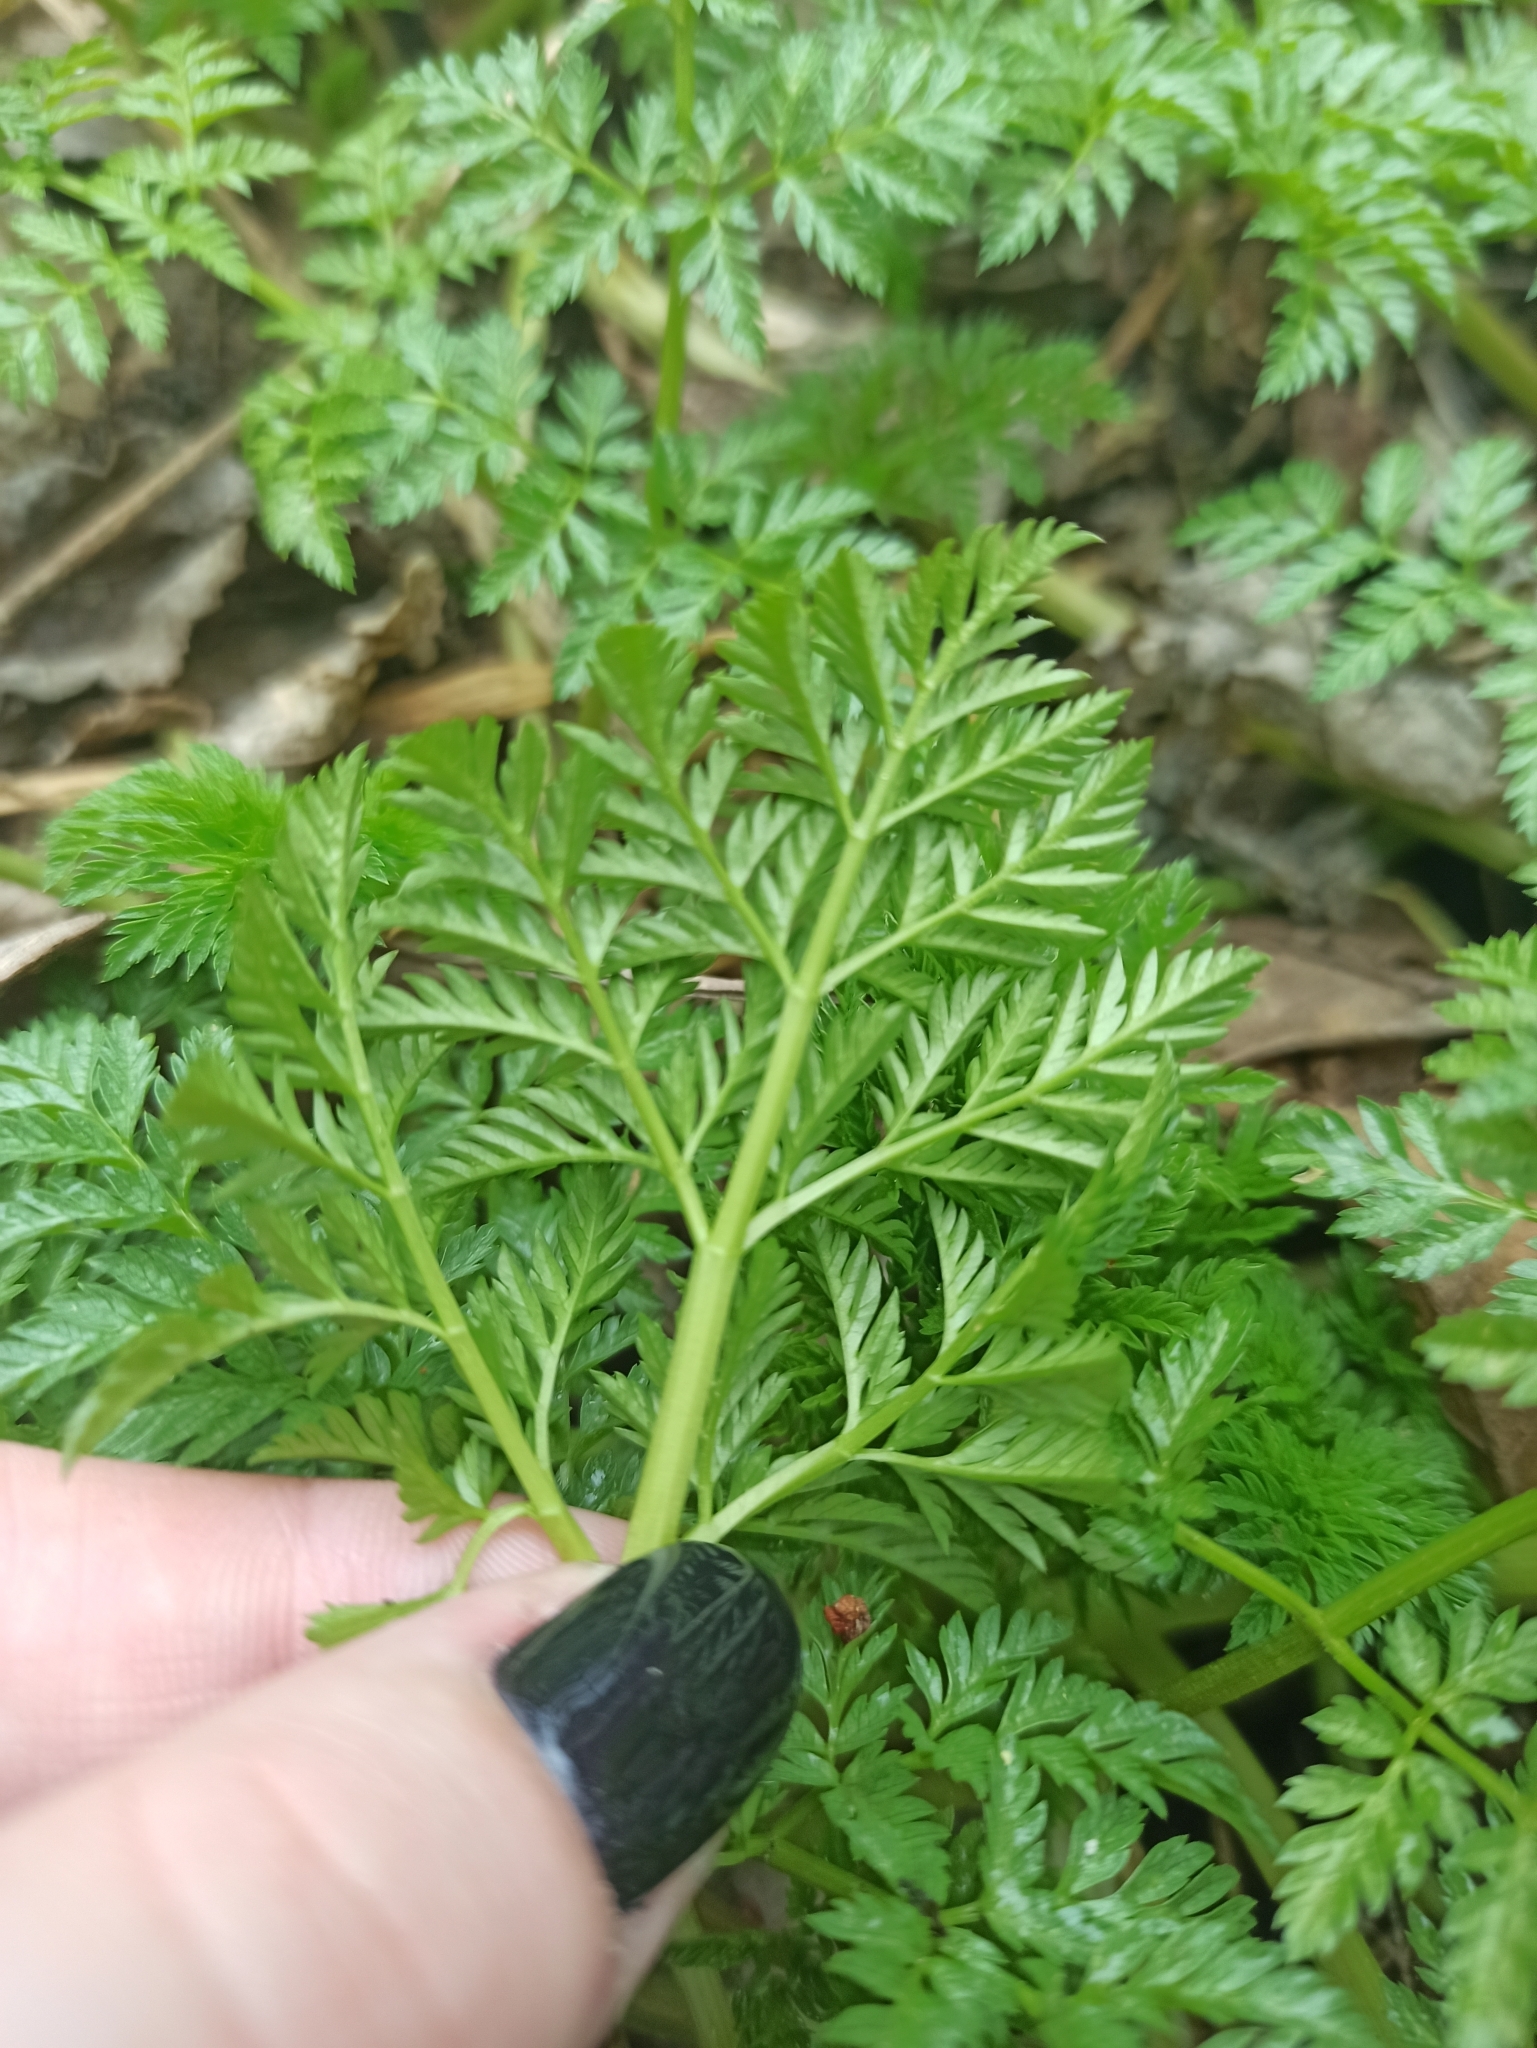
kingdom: Plantae
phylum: Tracheophyta
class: Magnoliopsida
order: Apiales
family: Apiaceae
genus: Conium
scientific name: Conium maculatum
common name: Hemlock
